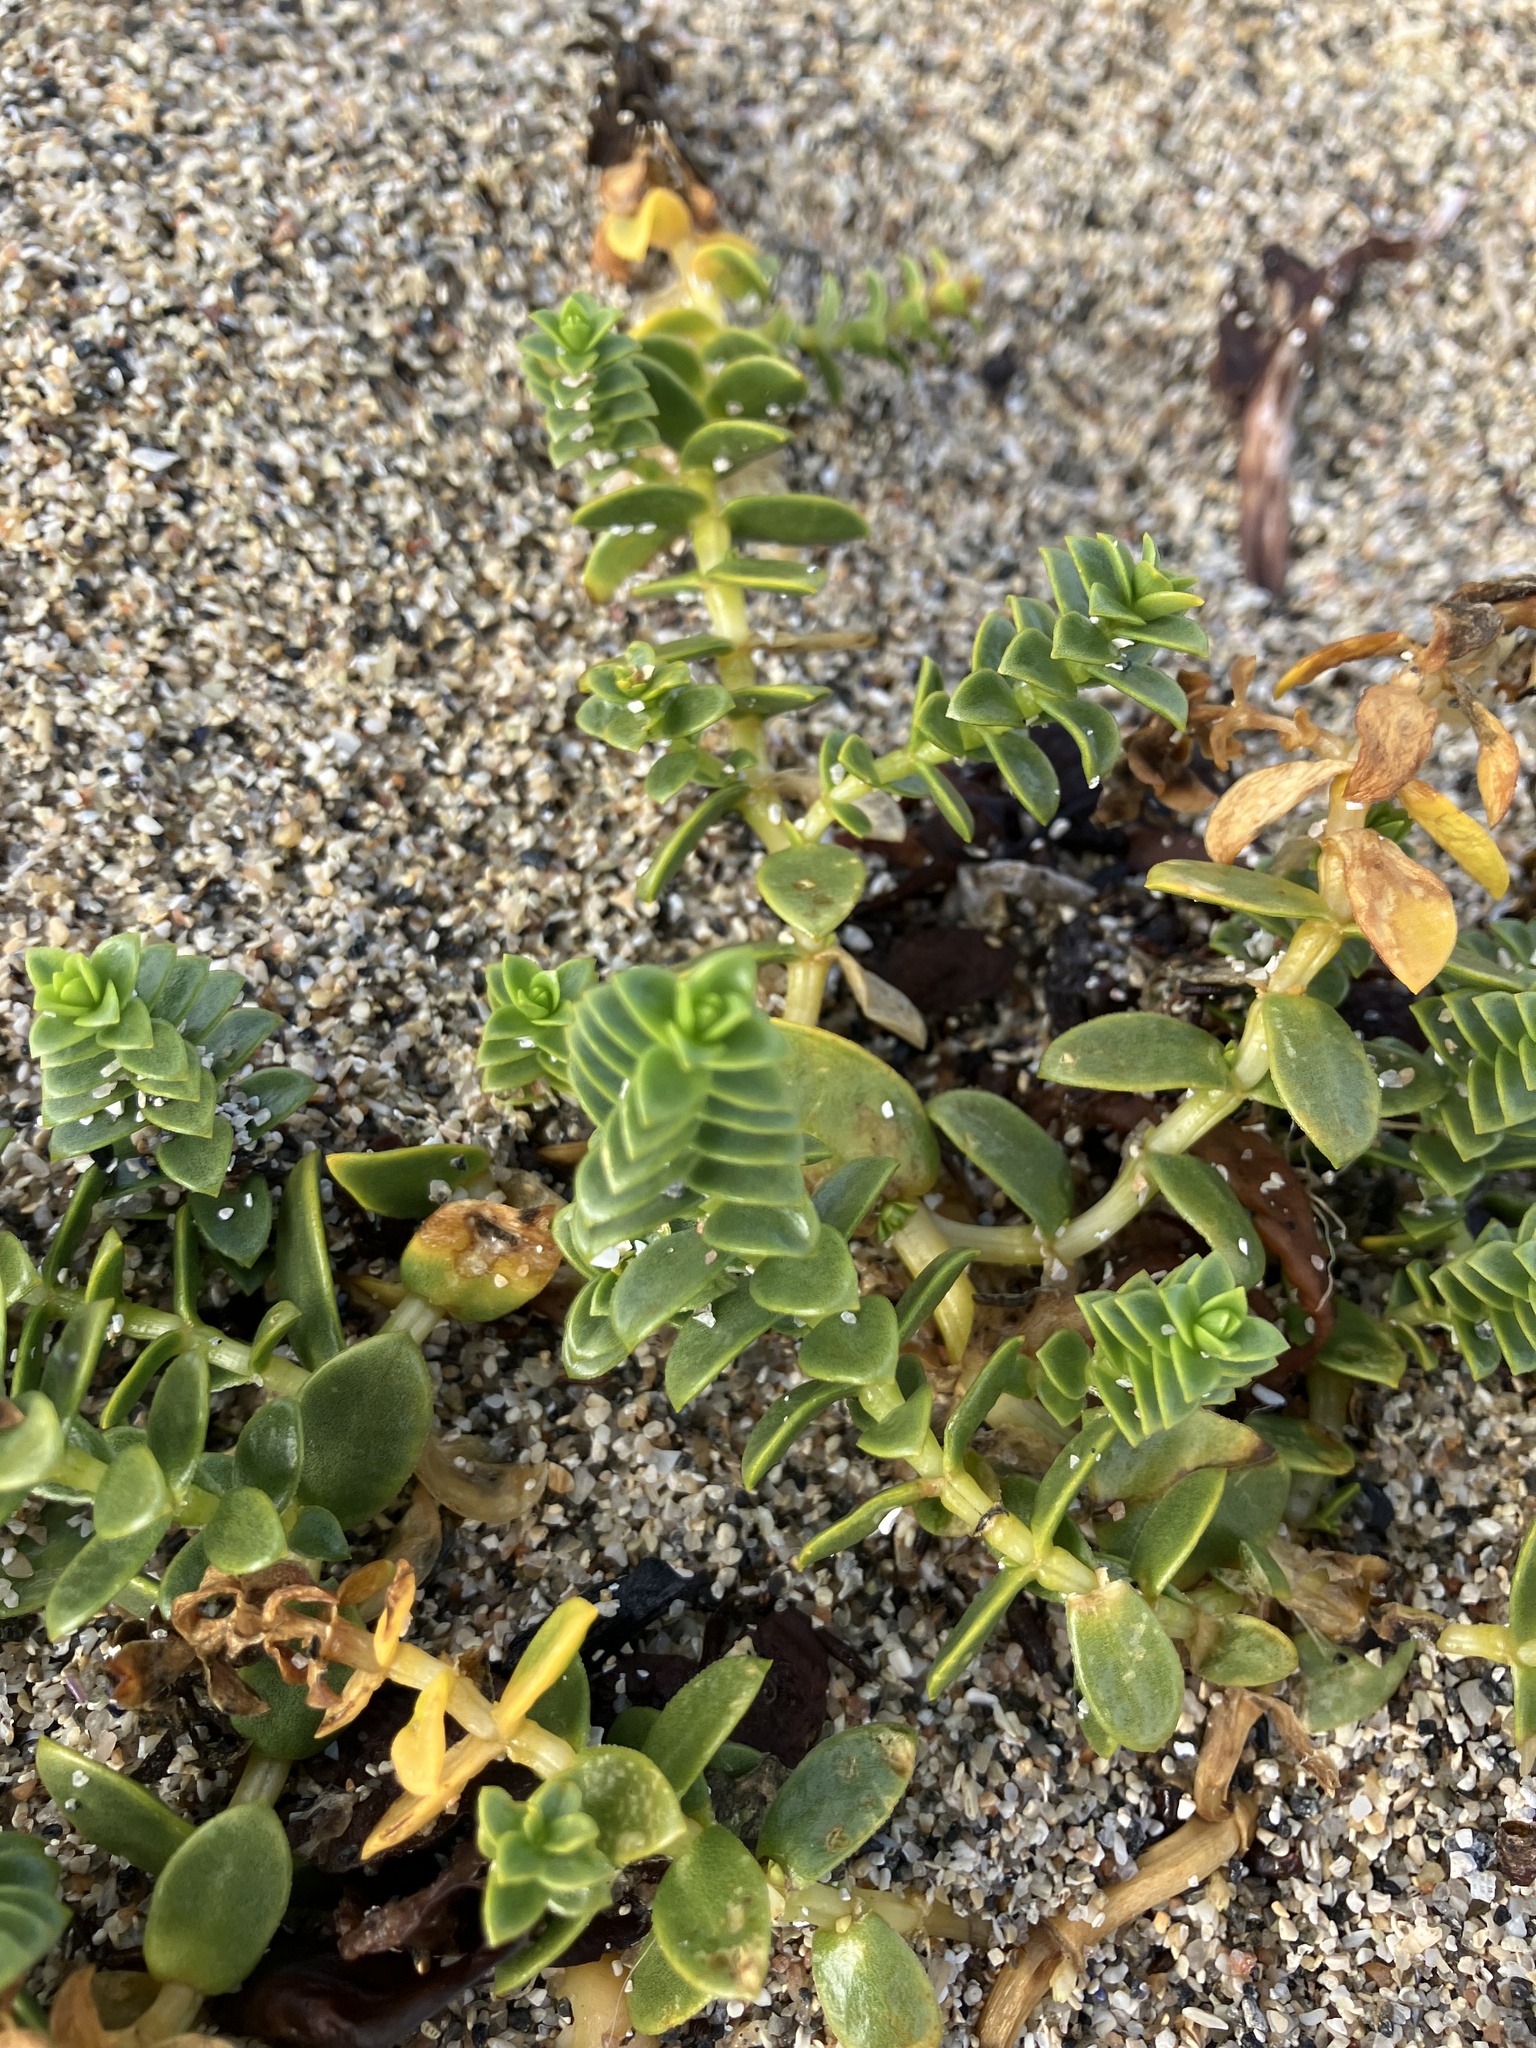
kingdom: Plantae
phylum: Tracheophyta
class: Magnoliopsida
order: Caryophyllales
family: Caryophyllaceae
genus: Honckenya
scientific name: Honckenya peploides
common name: Sea sandwort
